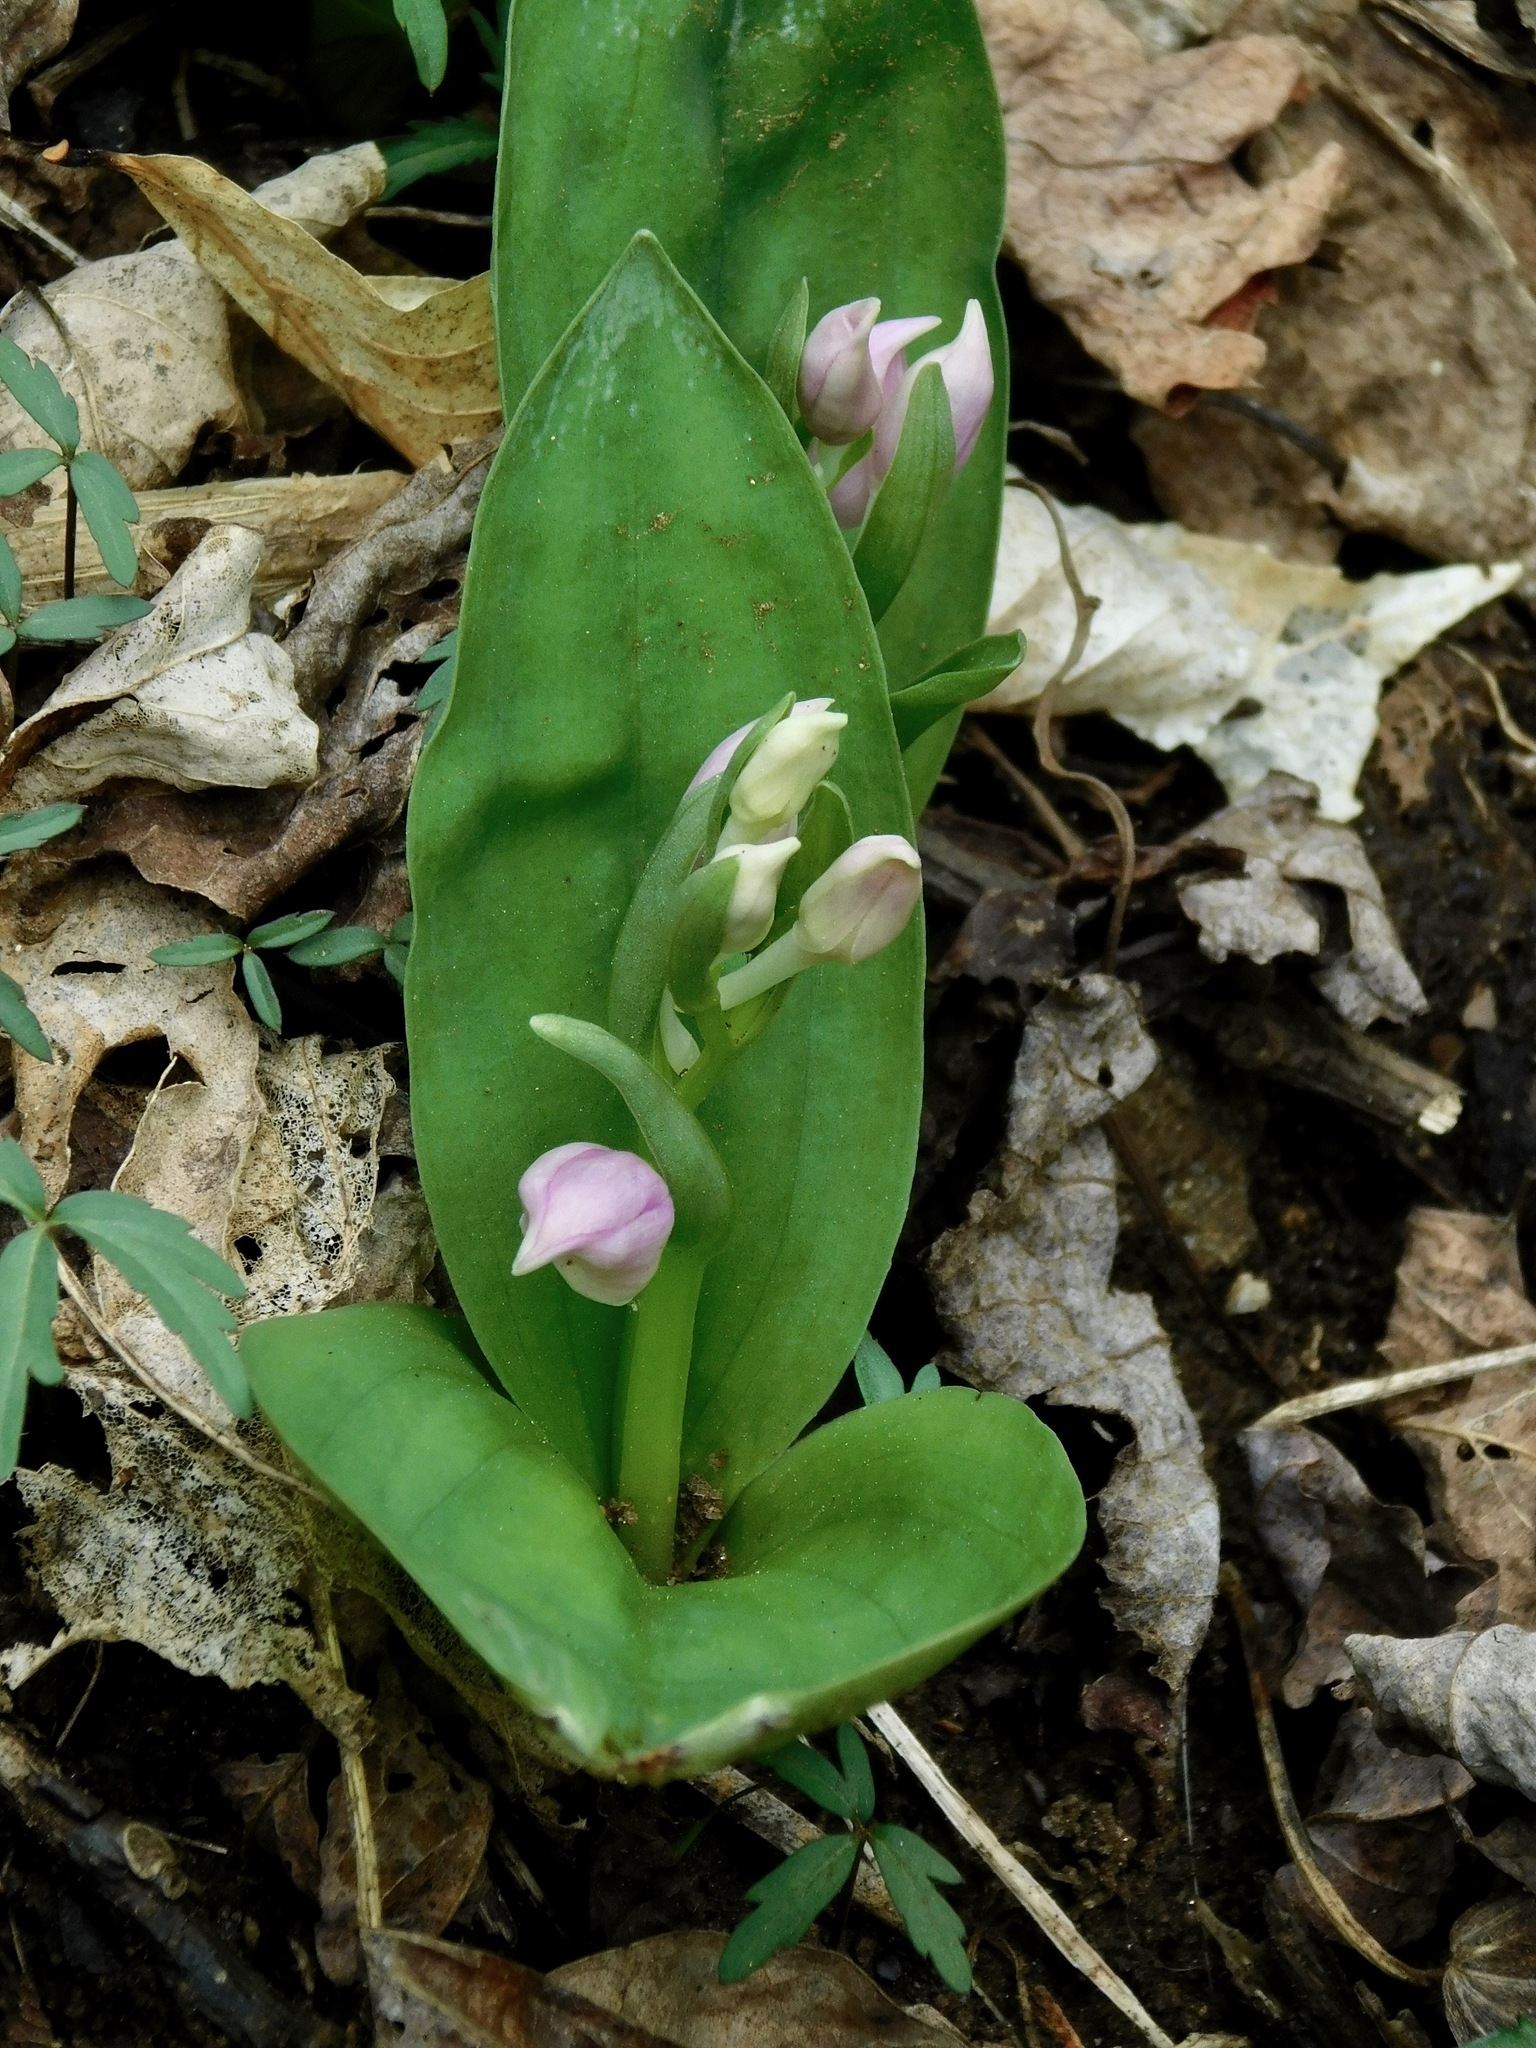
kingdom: Plantae
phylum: Tracheophyta
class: Liliopsida
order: Asparagales
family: Orchidaceae
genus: Galearis
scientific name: Galearis spectabilis
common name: Purple-hooded orchis
